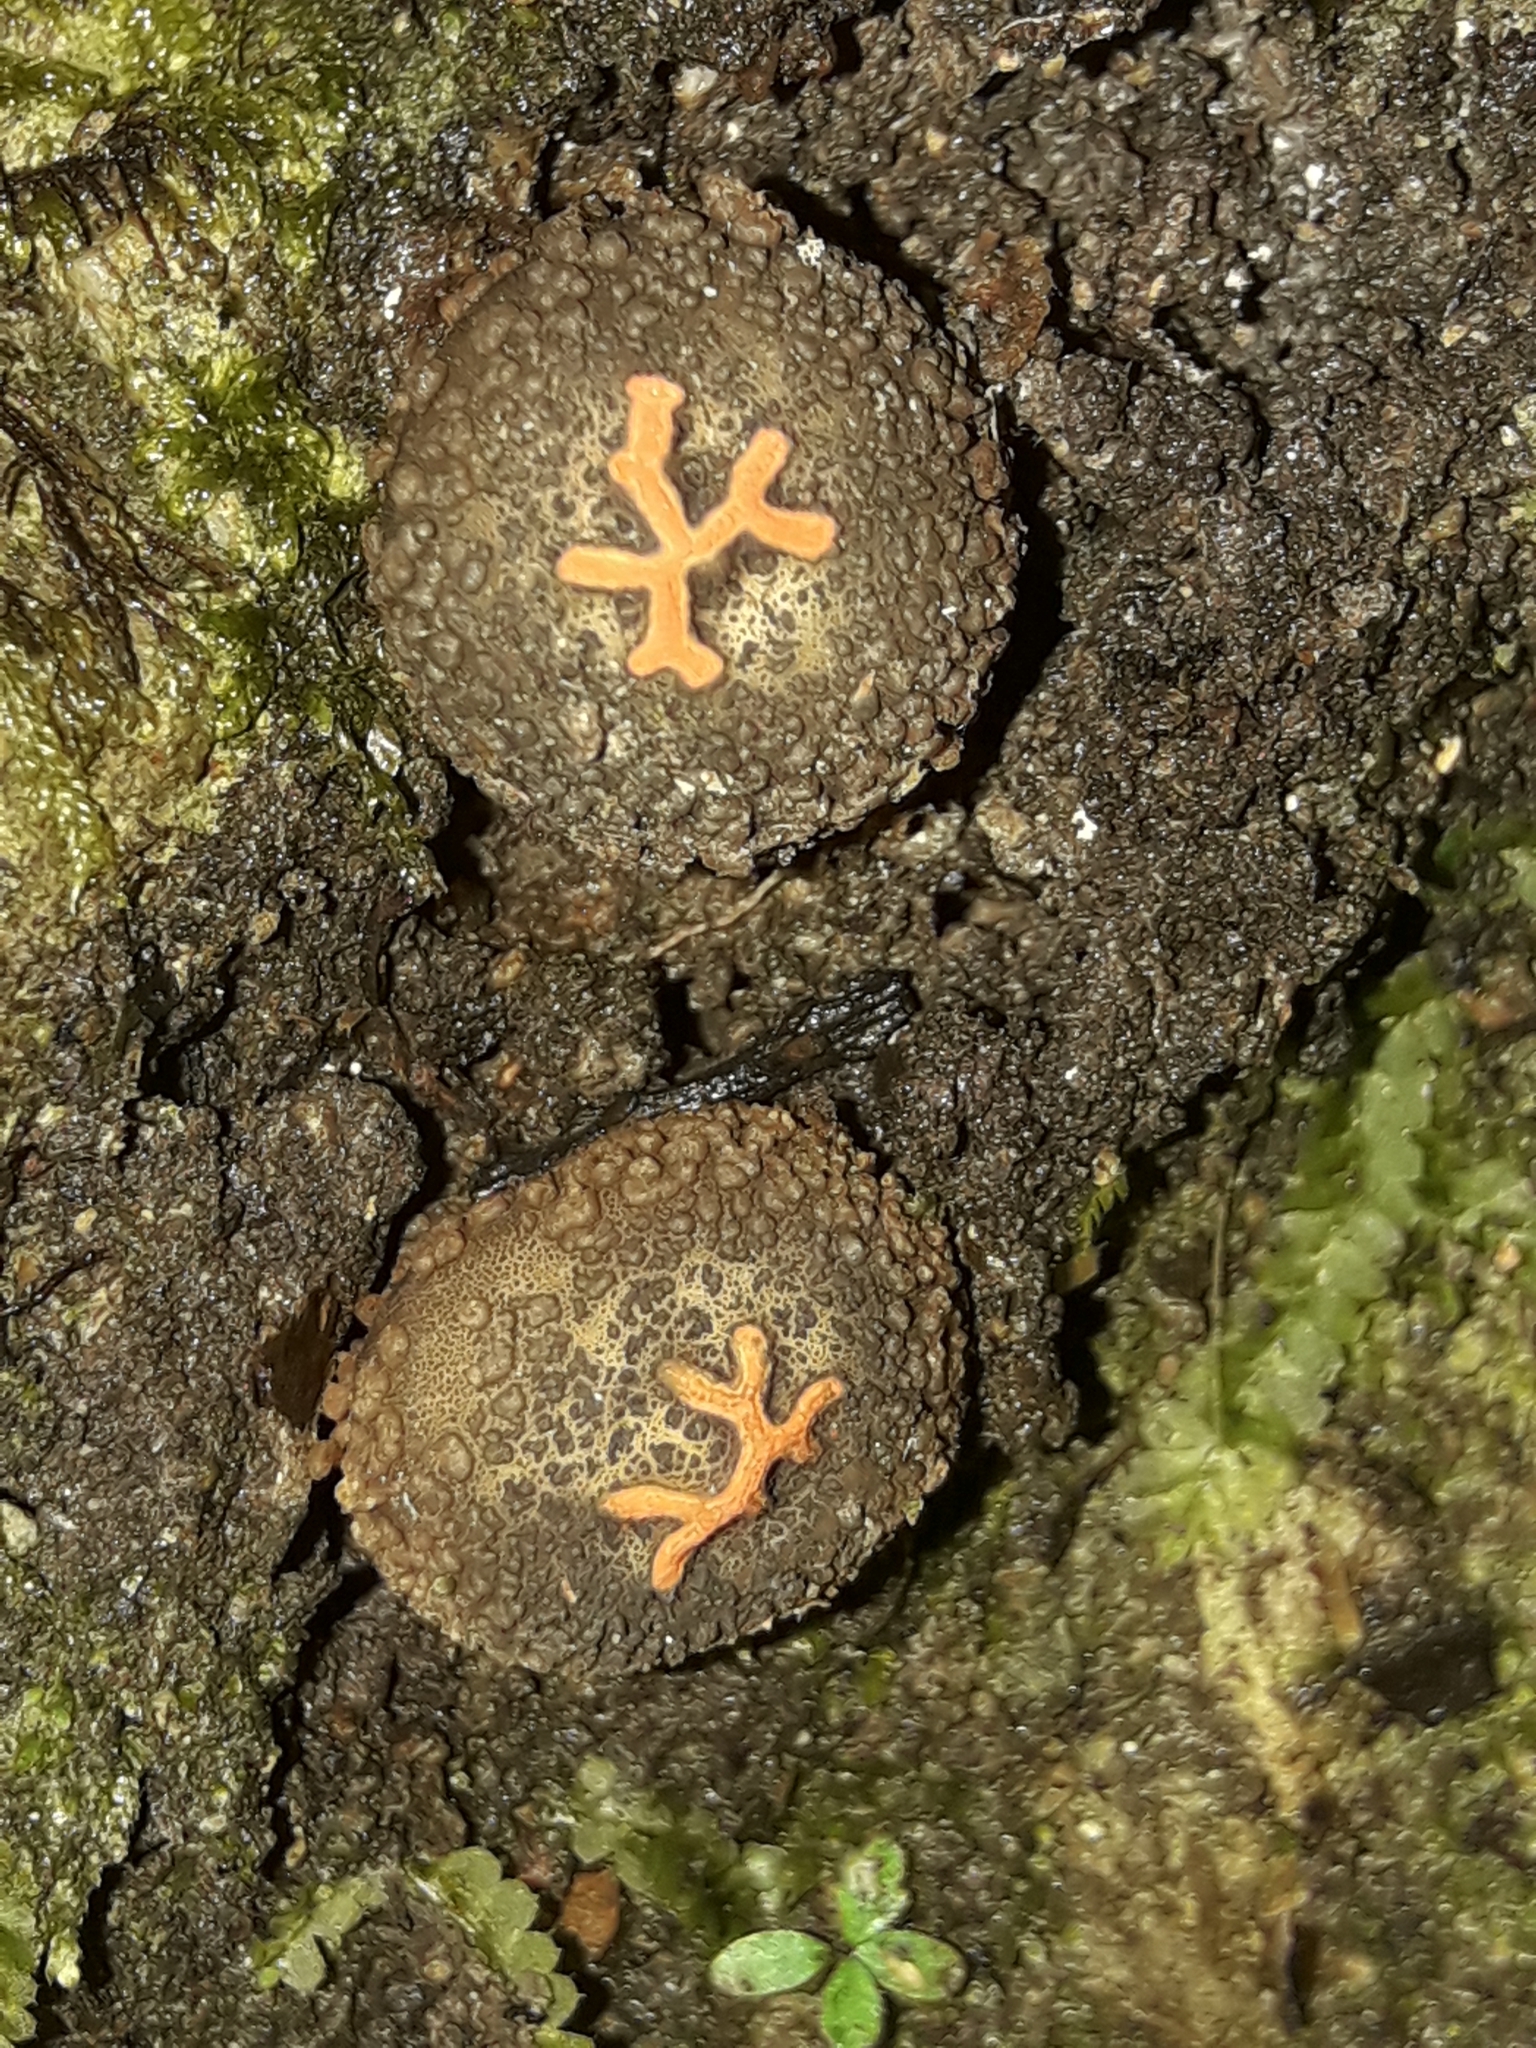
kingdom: Fungi
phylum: Basidiomycota
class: Agaricomycetes
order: Boletales
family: Calostomataceae
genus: Calostoma
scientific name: Calostoma rodwayi
